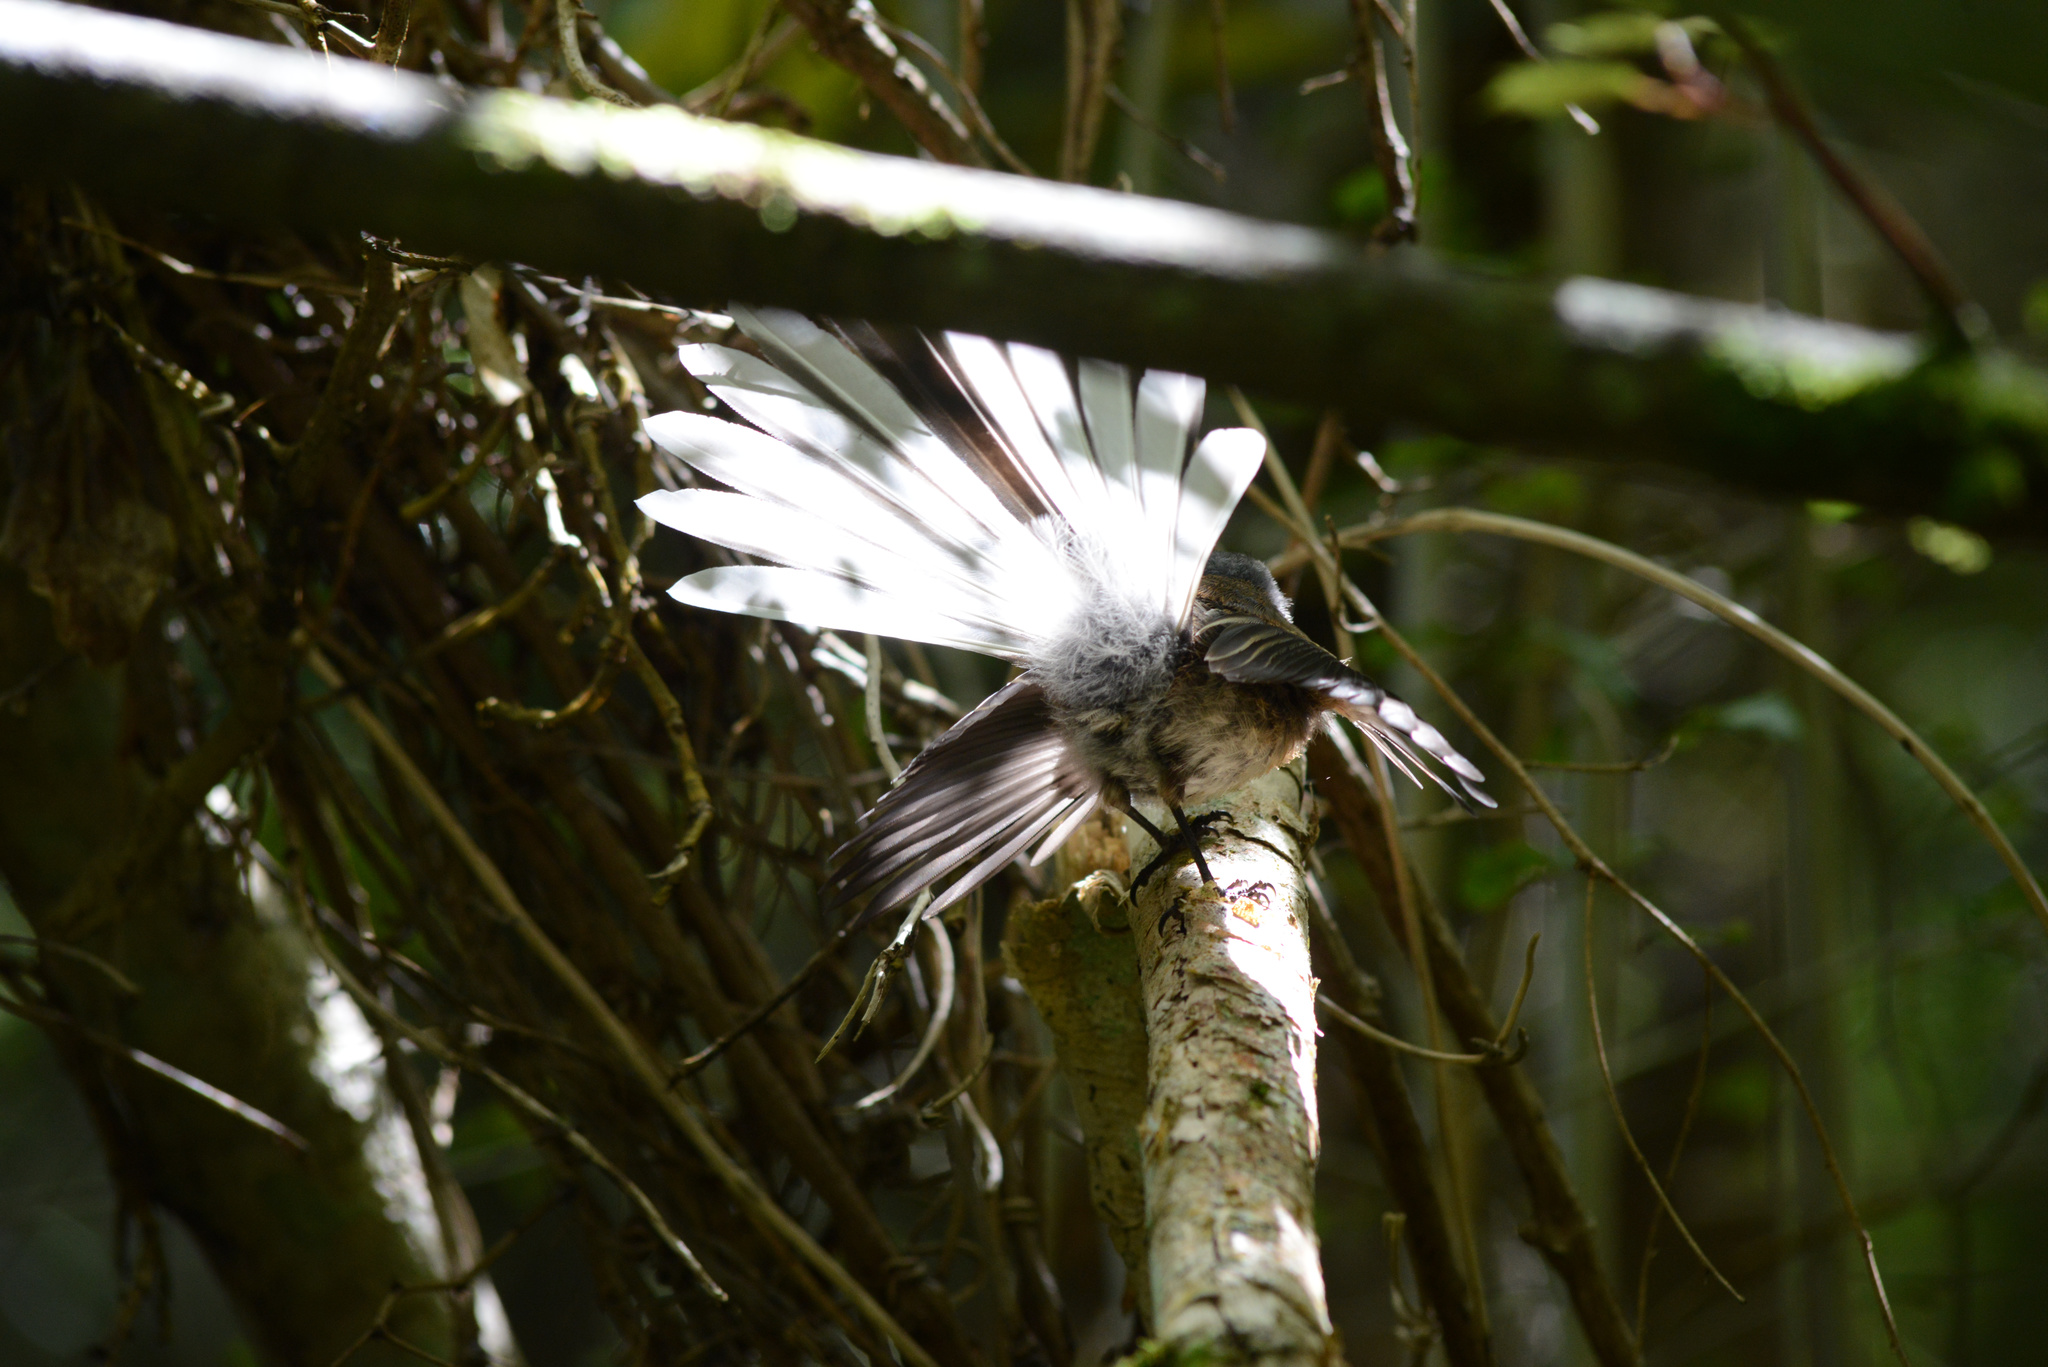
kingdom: Animalia
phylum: Chordata
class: Aves
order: Passeriformes
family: Rhipiduridae
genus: Rhipidura
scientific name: Rhipidura fuliginosa
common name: New zealand fantail
